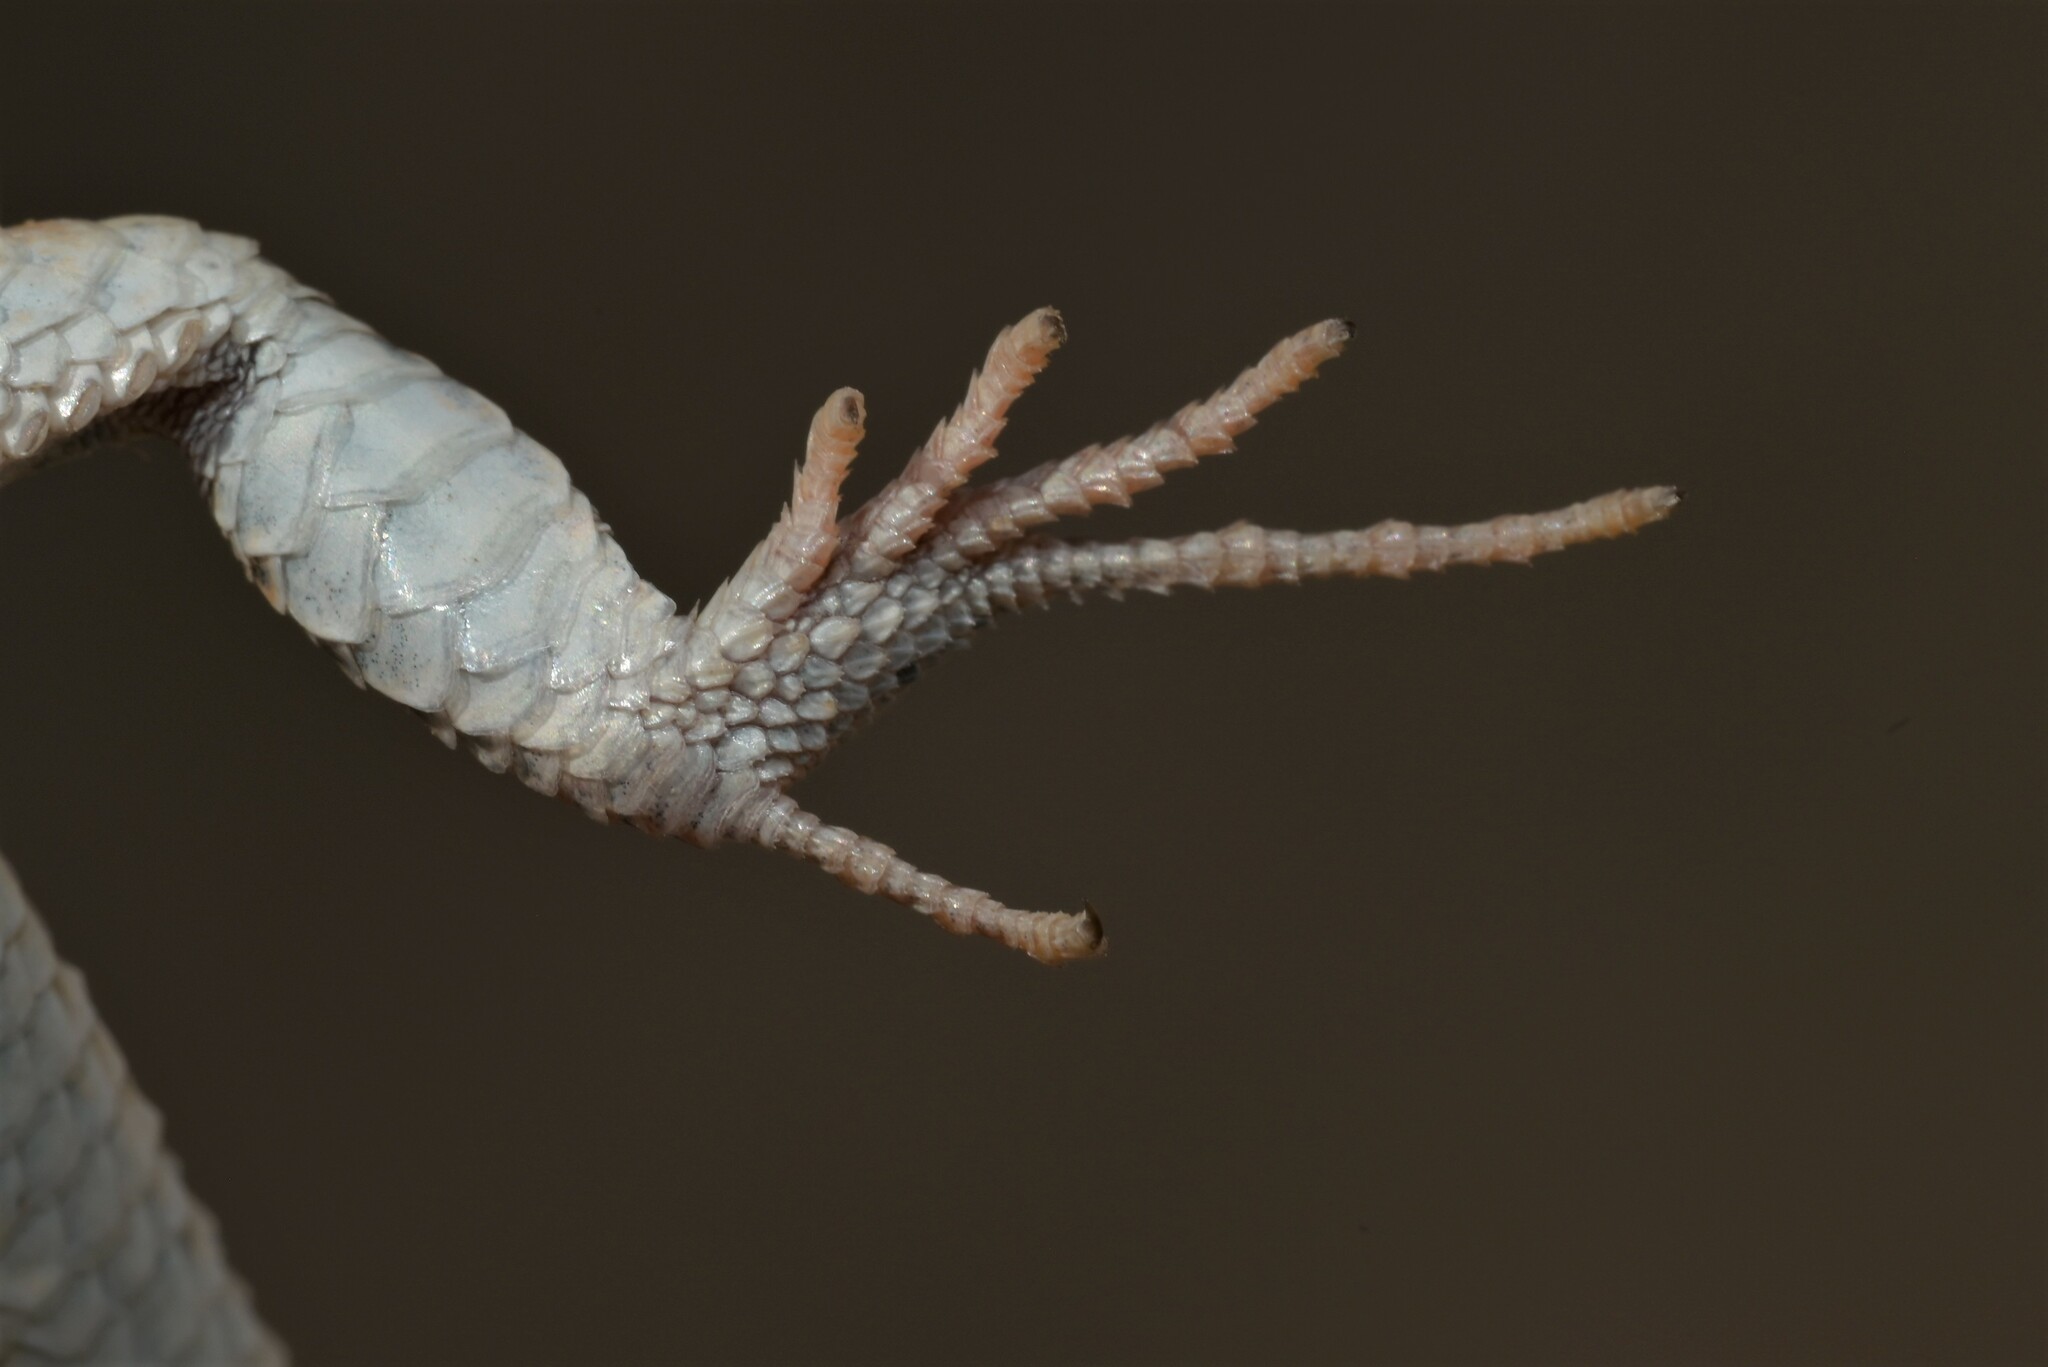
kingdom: Animalia
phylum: Chordata
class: Squamata
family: Lacertidae
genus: Mesalina
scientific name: Mesalina guttulata
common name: Desert lacerta
